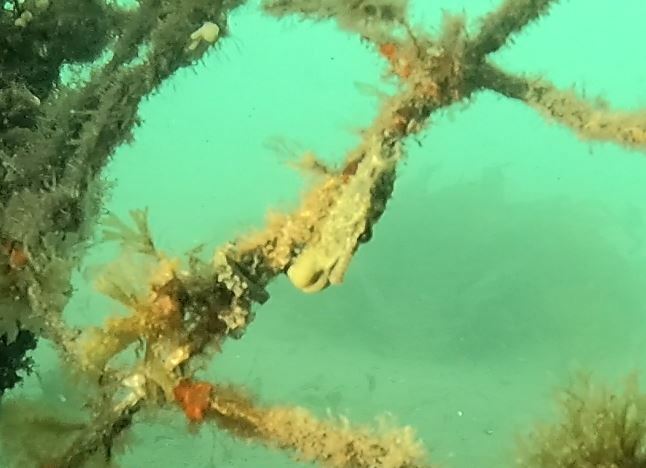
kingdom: Animalia
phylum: Chordata
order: Syngnathiformes
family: Syngnathidae
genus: Hippocampus
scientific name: Hippocampus whitei
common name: New holland seahorse
